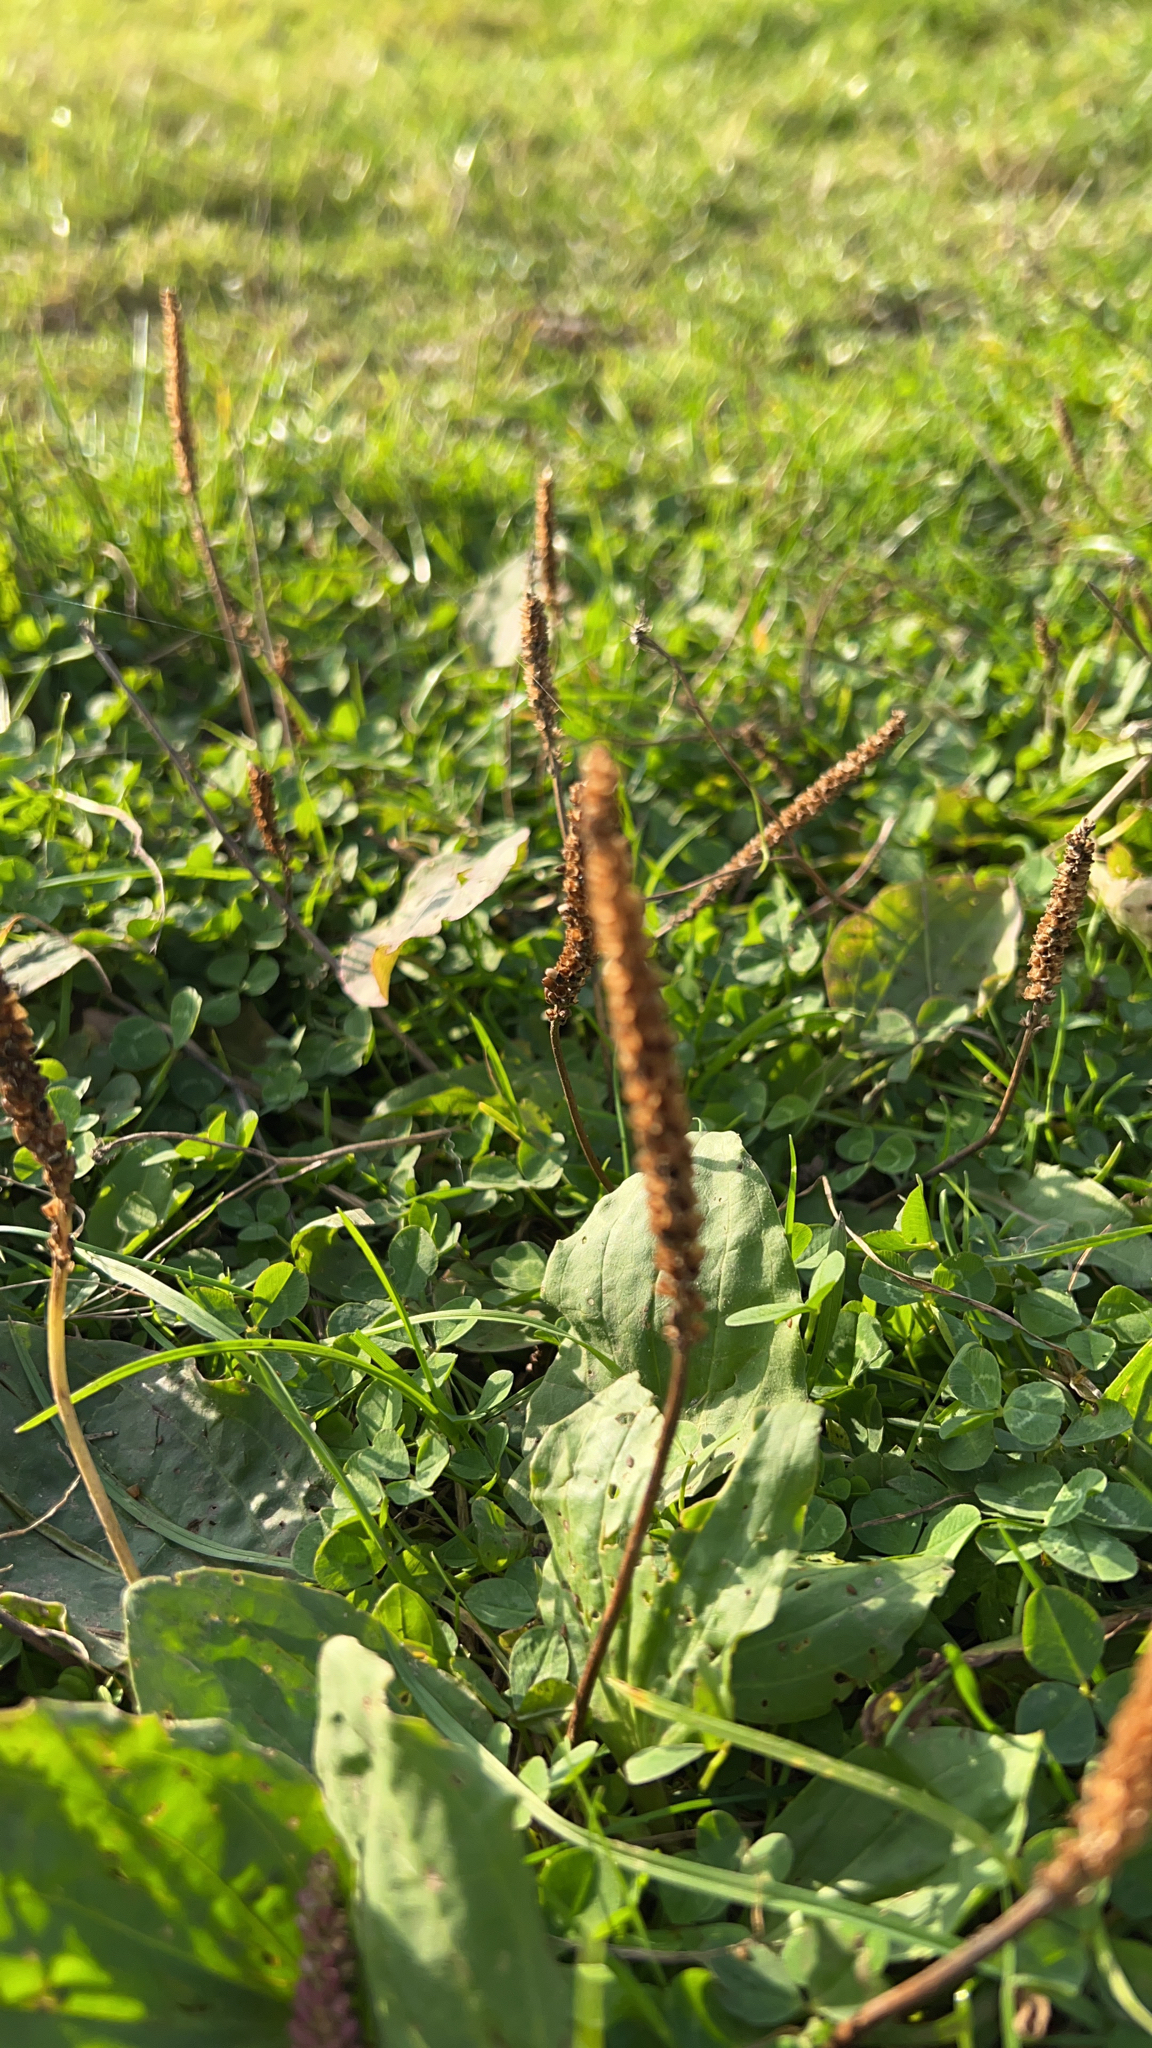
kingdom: Plantae
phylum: Tracheophyta
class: Magnoliopsida
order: Lamiales
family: Plantaginaceae
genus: Plantago
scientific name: Plantago major
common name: Common plantain
